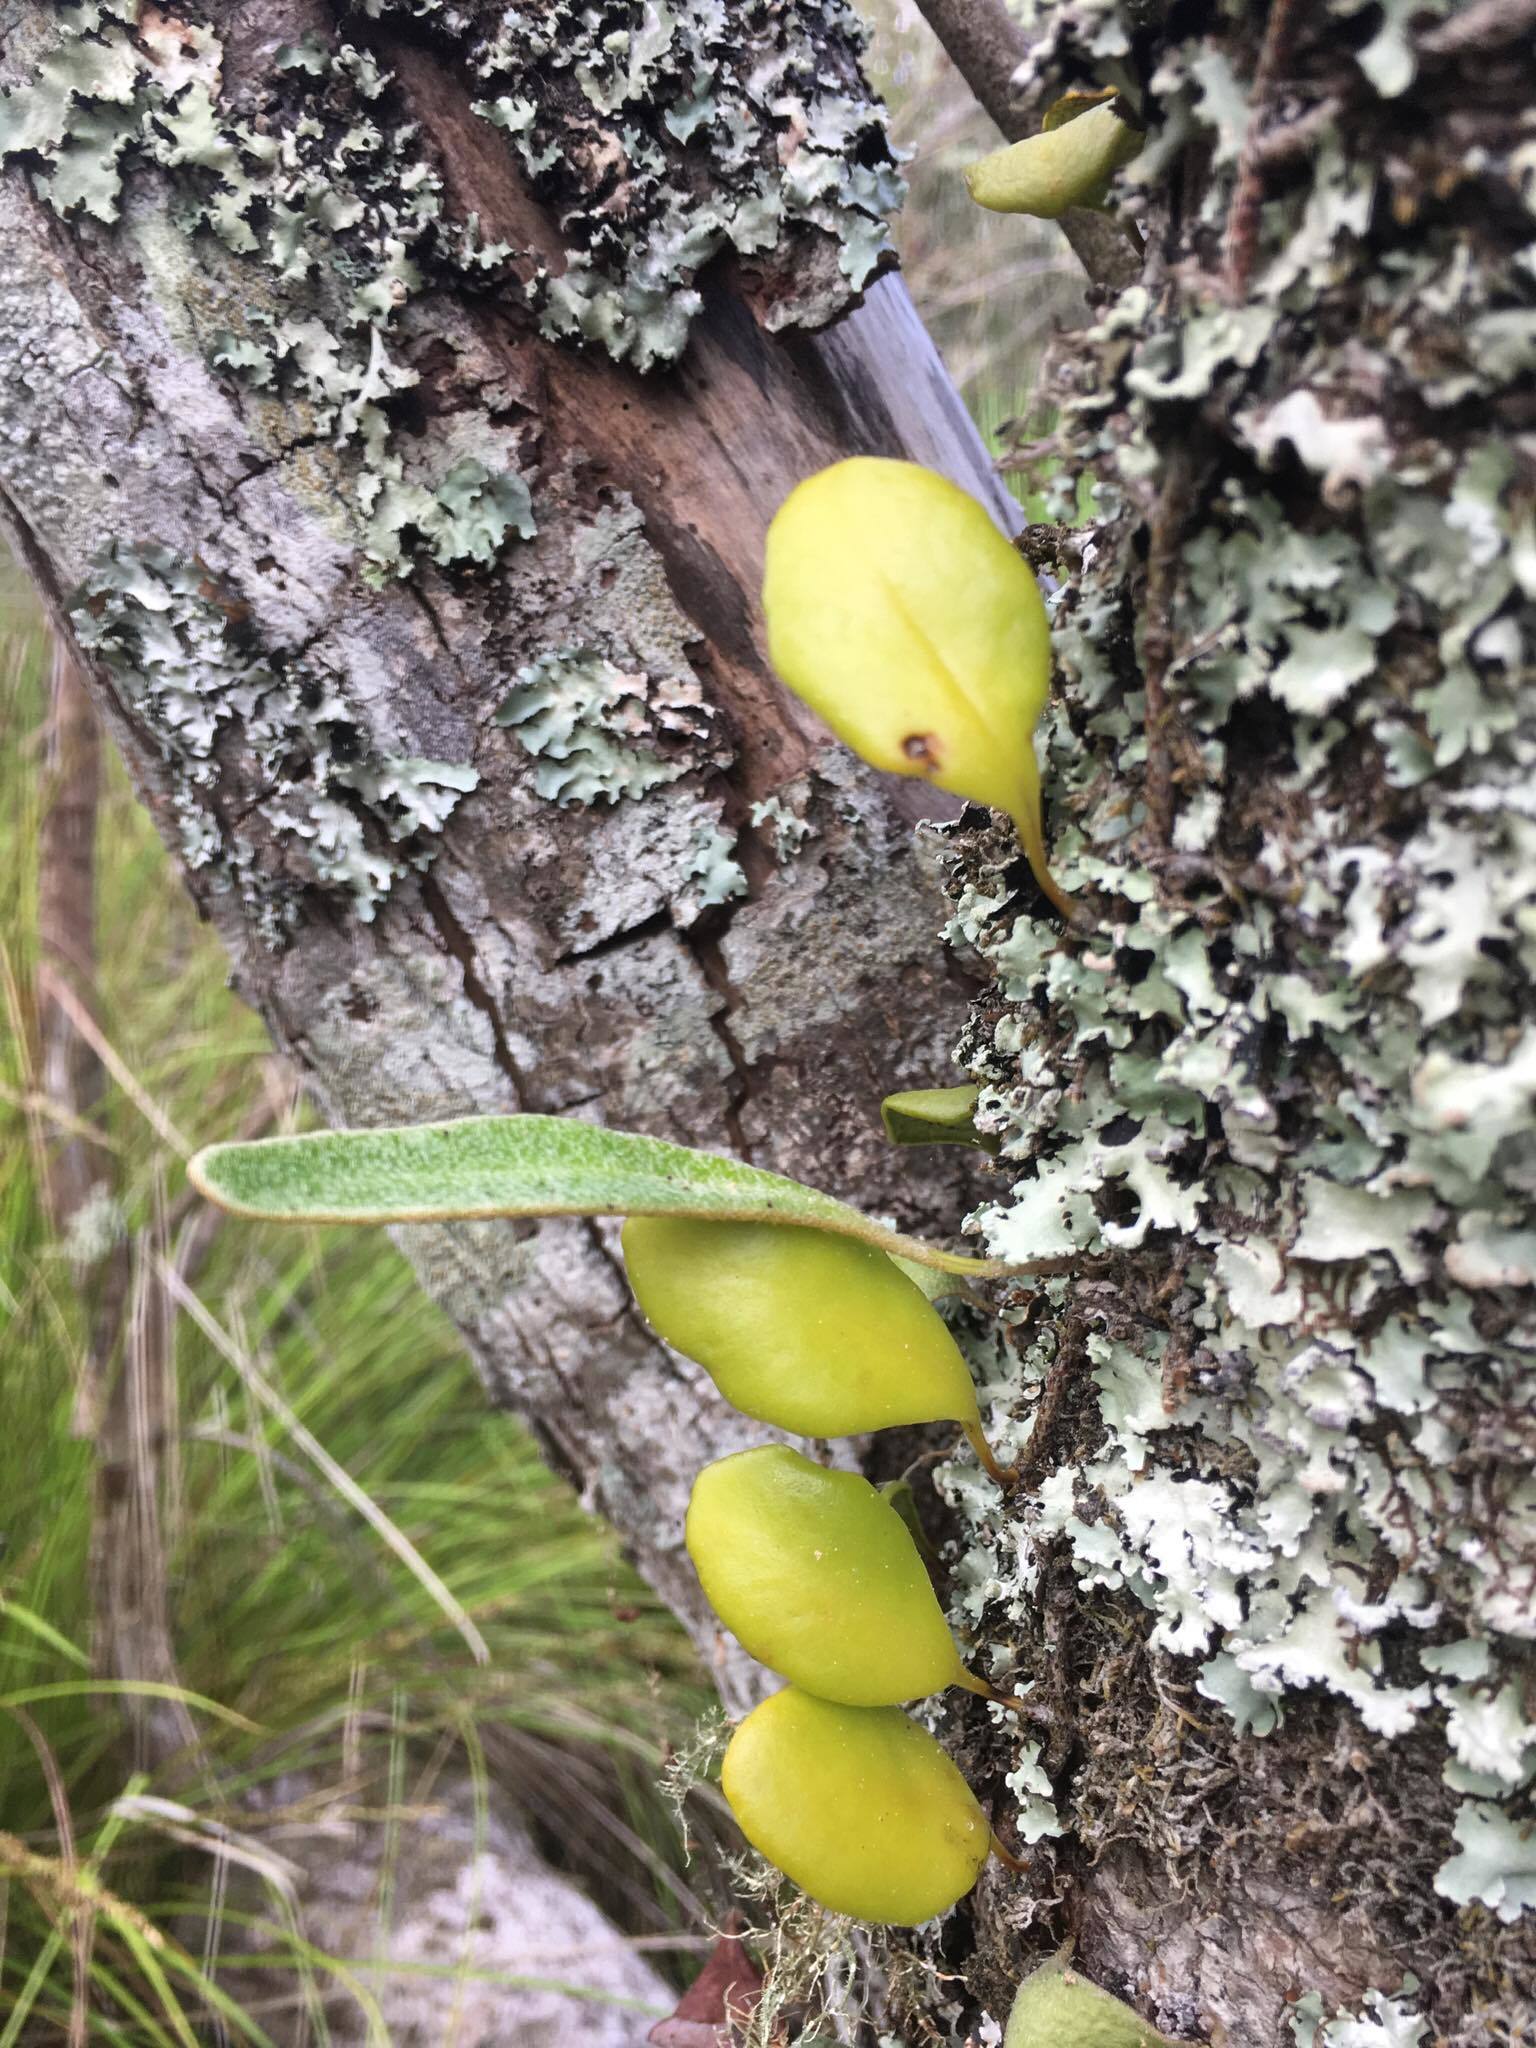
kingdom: Plantae
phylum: Tracheophyta
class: Polypodiopsida
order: Polypodiales
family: Polypodiaceae
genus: Pyrrosia
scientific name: Pyrrosia eleagnifolia
